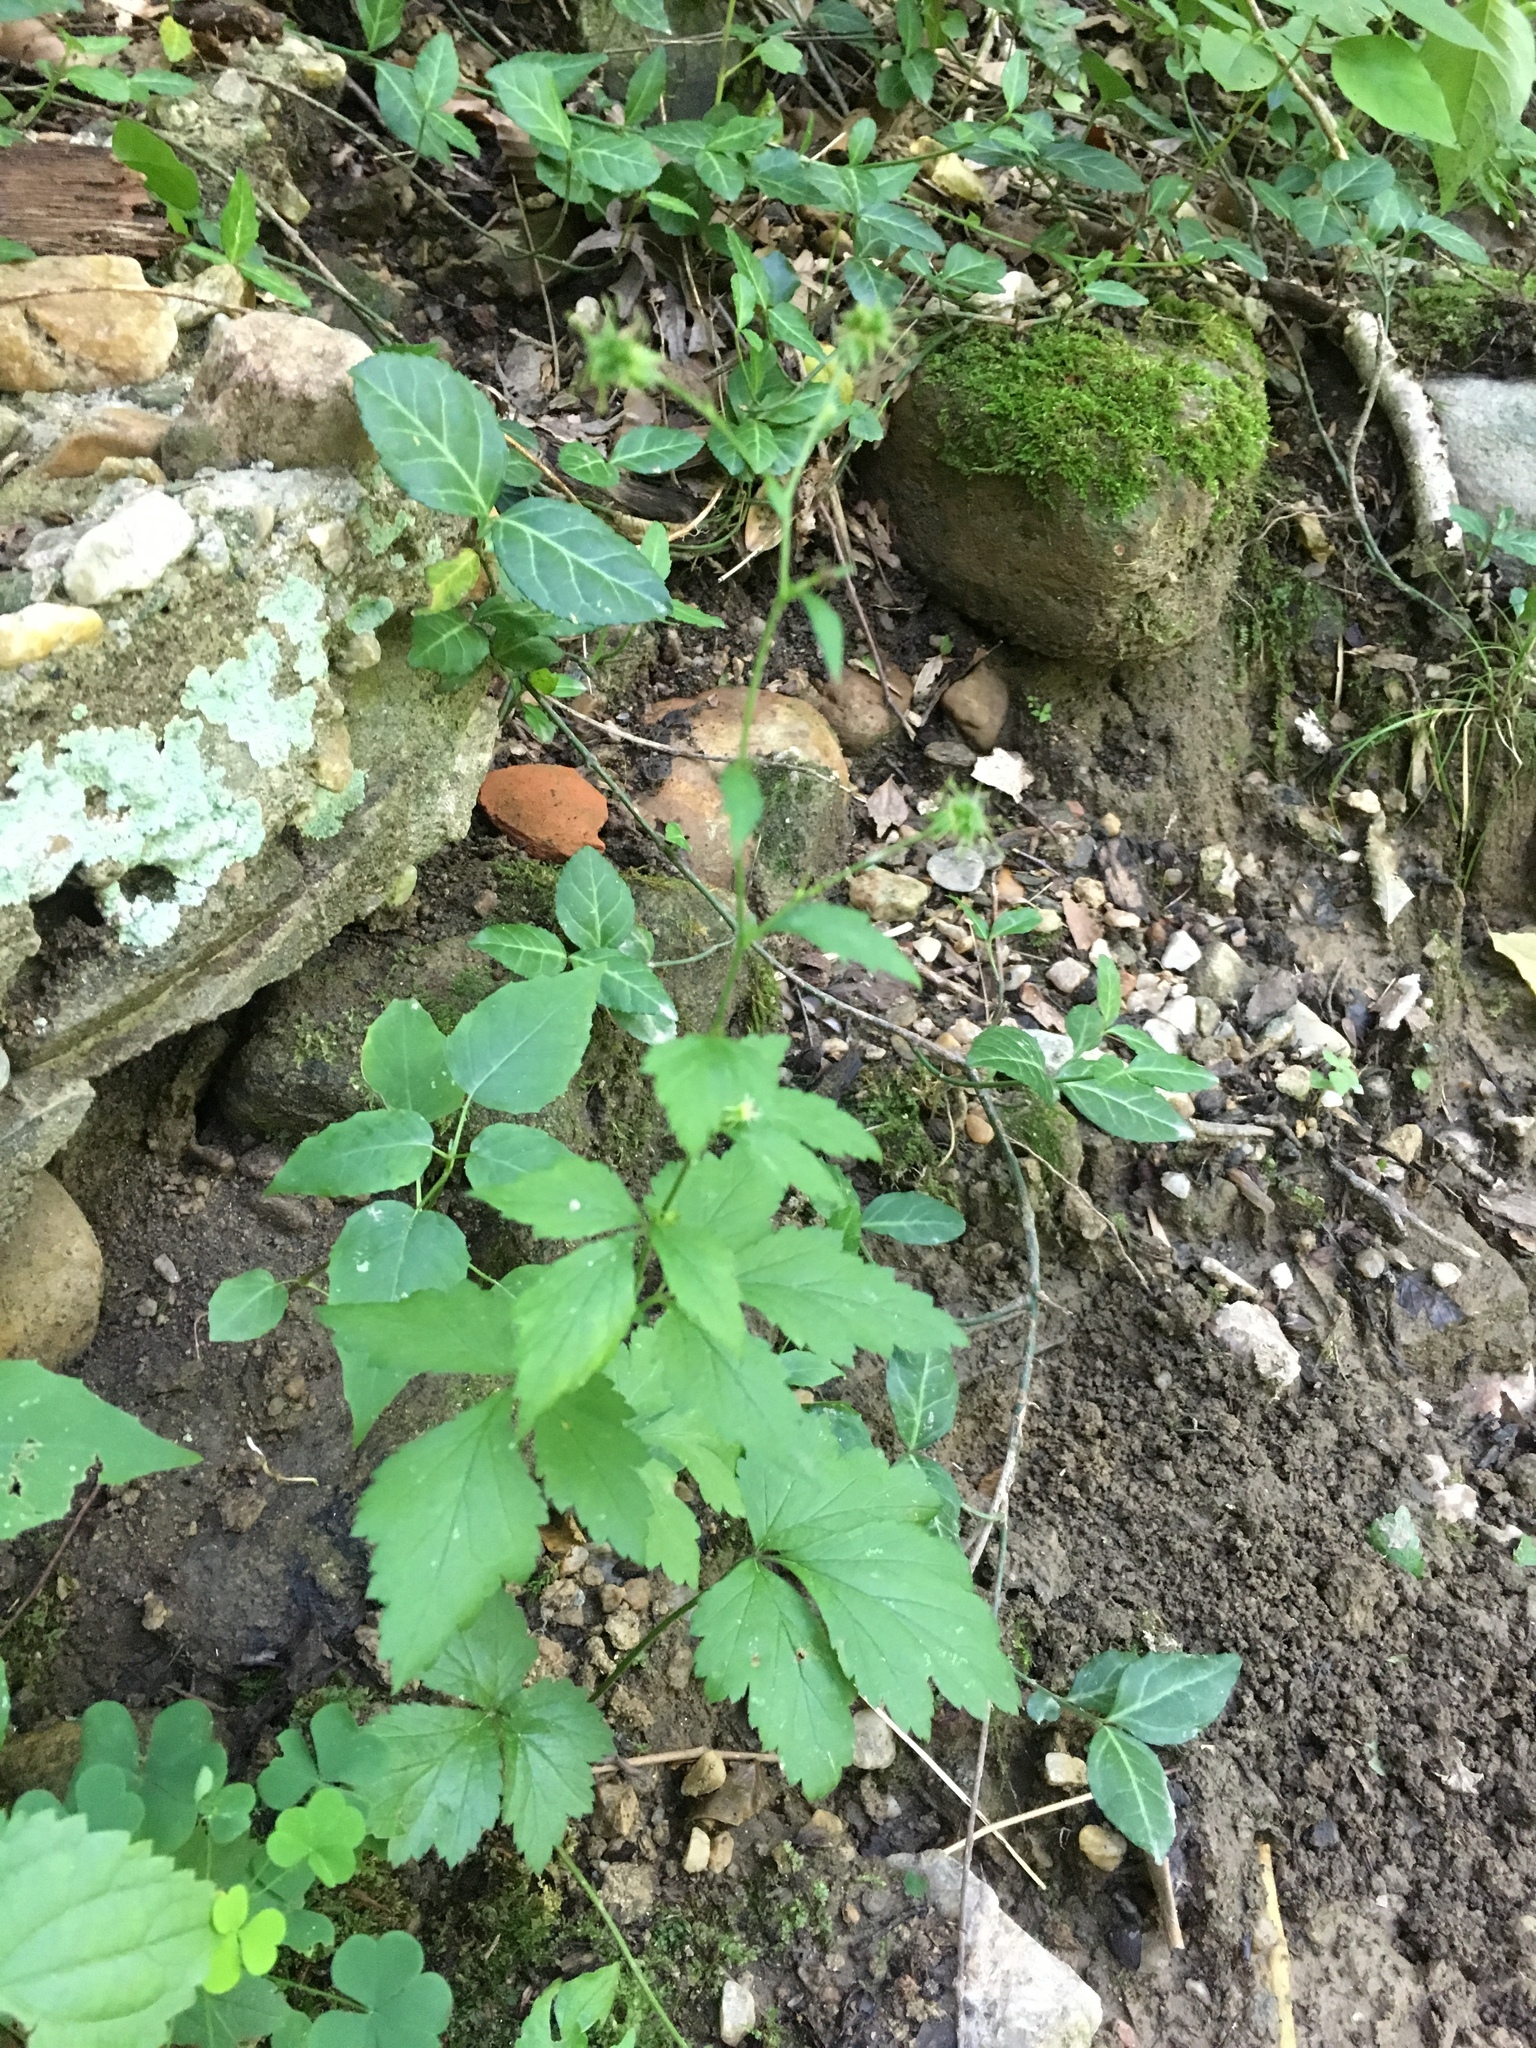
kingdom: Plantae
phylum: Tracheophyta
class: Magnoliopsida
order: Rosales
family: Rosaceae
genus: Geum
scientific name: Geum canadense
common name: White avens
